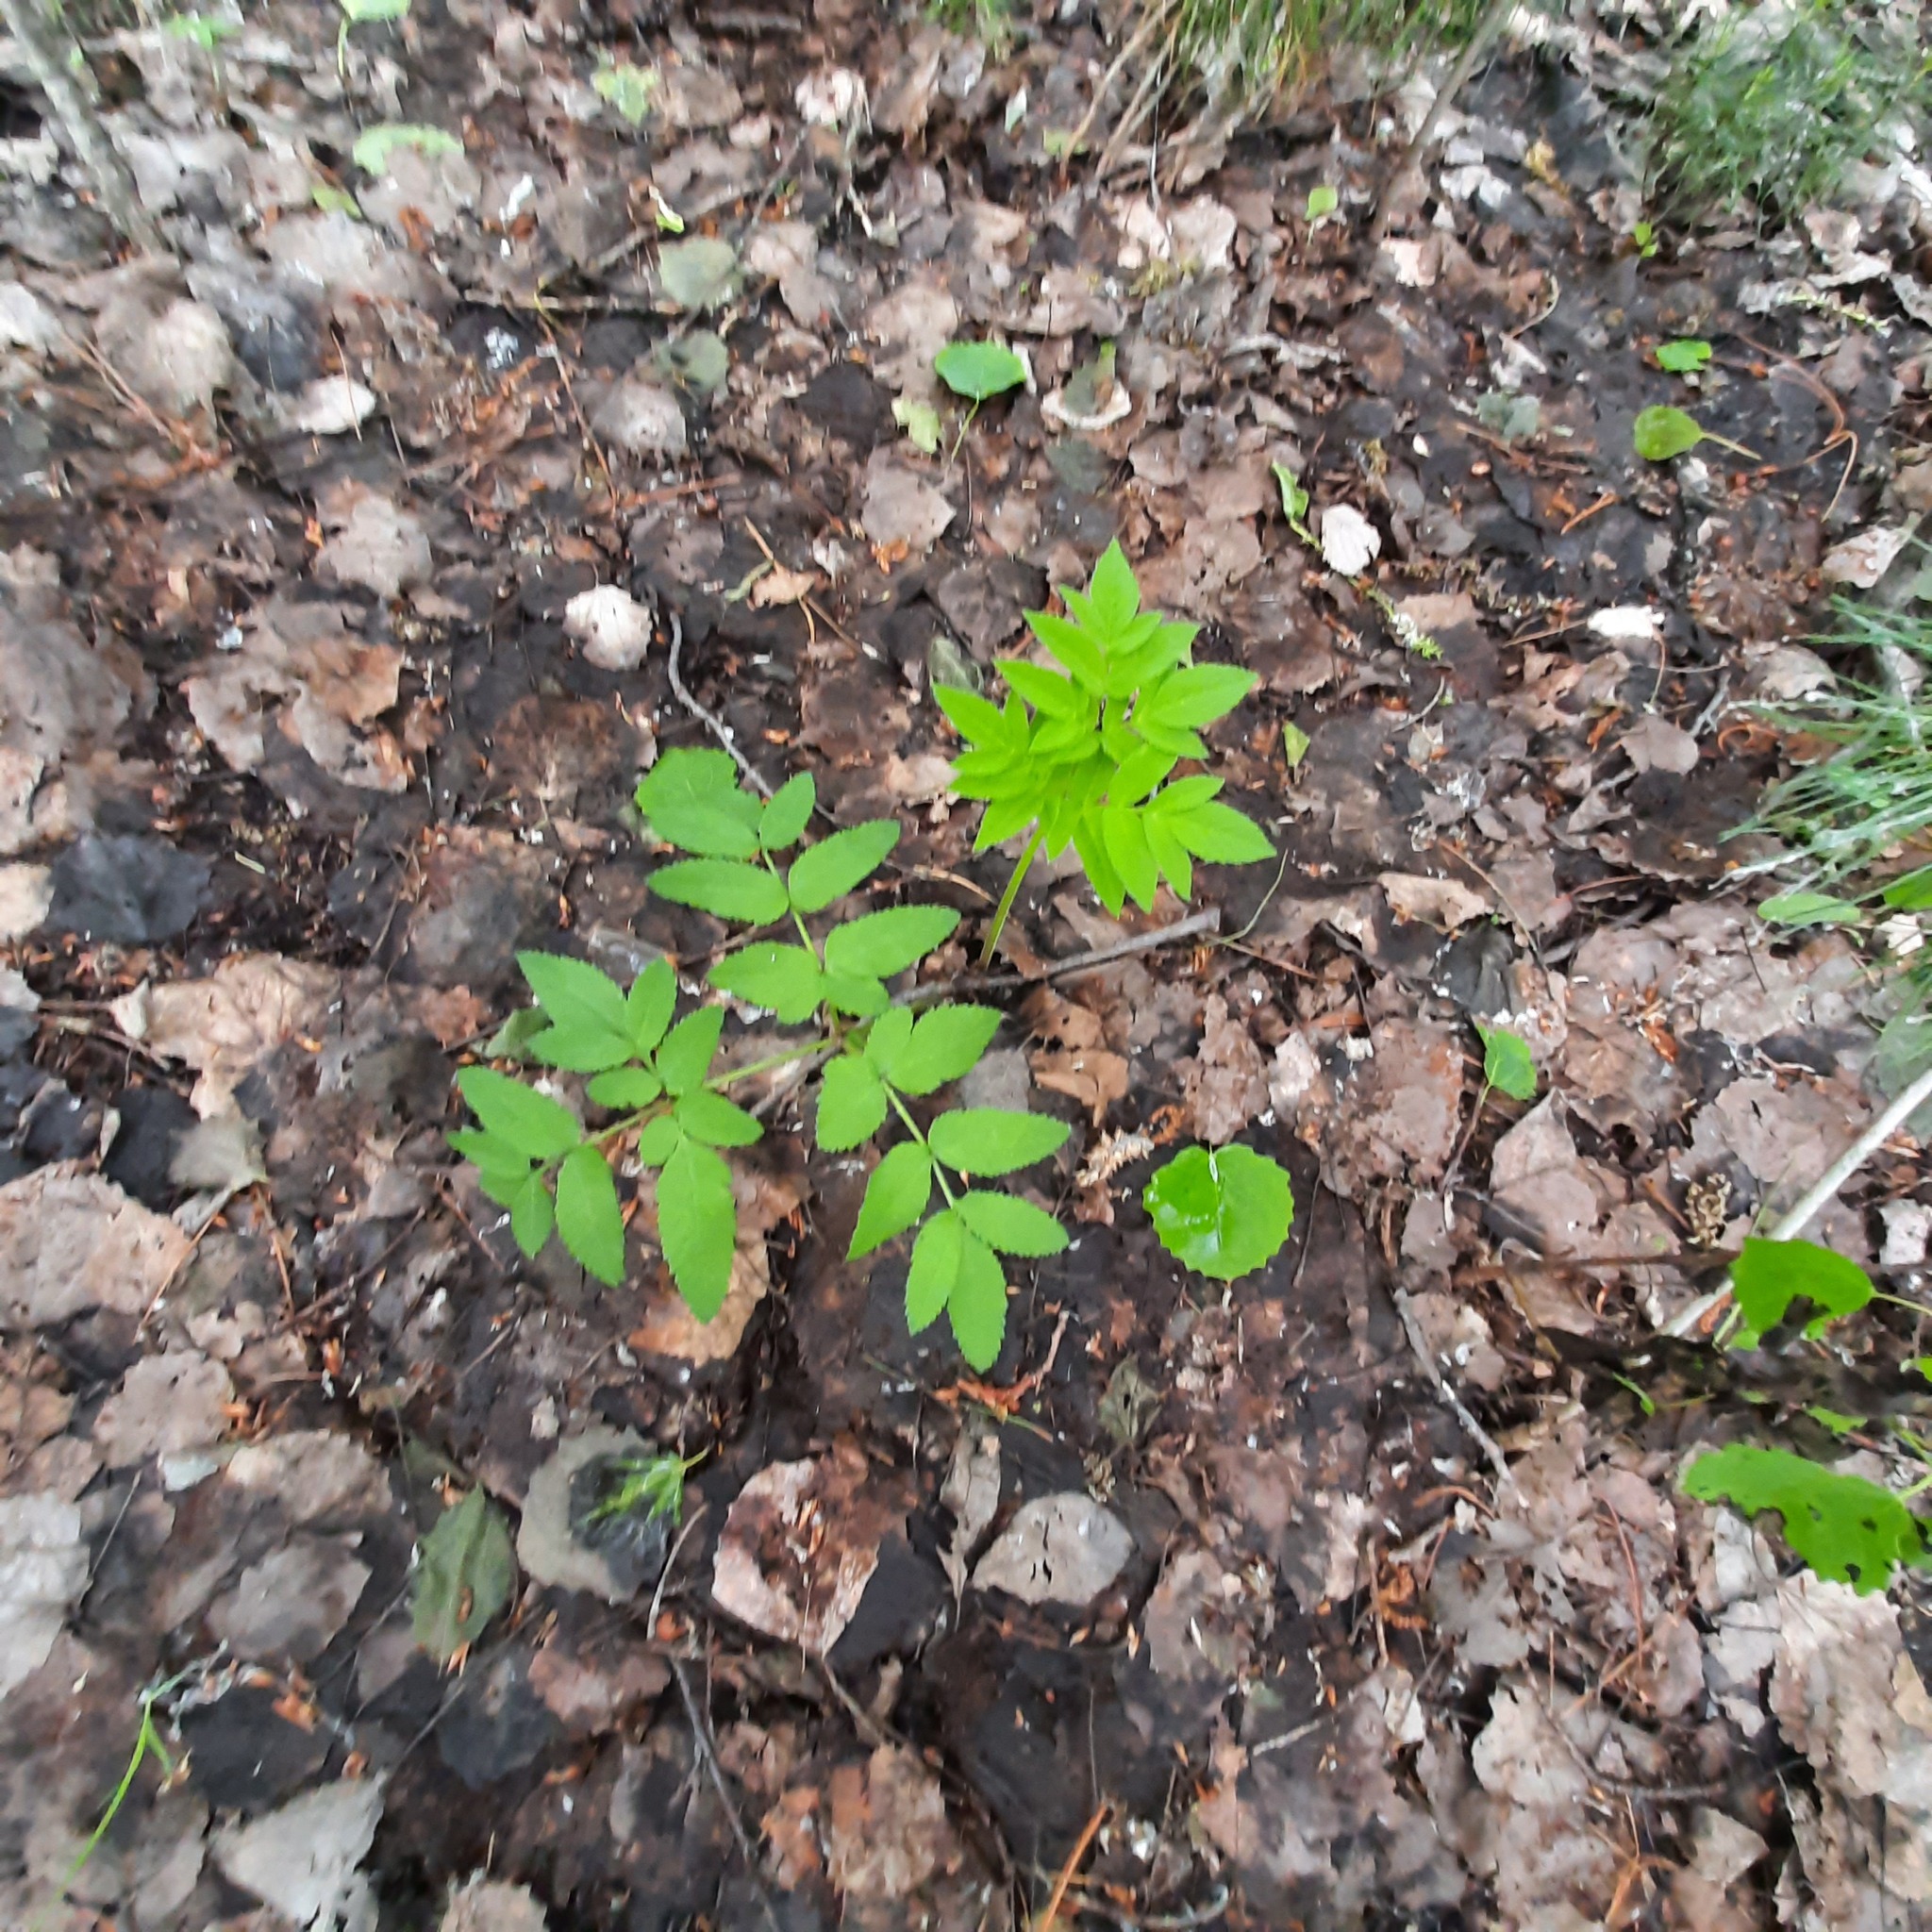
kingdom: Plantae
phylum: Tracheophyta
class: Magnoliopsida
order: Apiales
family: Apiaceae
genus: Angelica
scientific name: Angelica sylvestris
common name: Wild angelica
